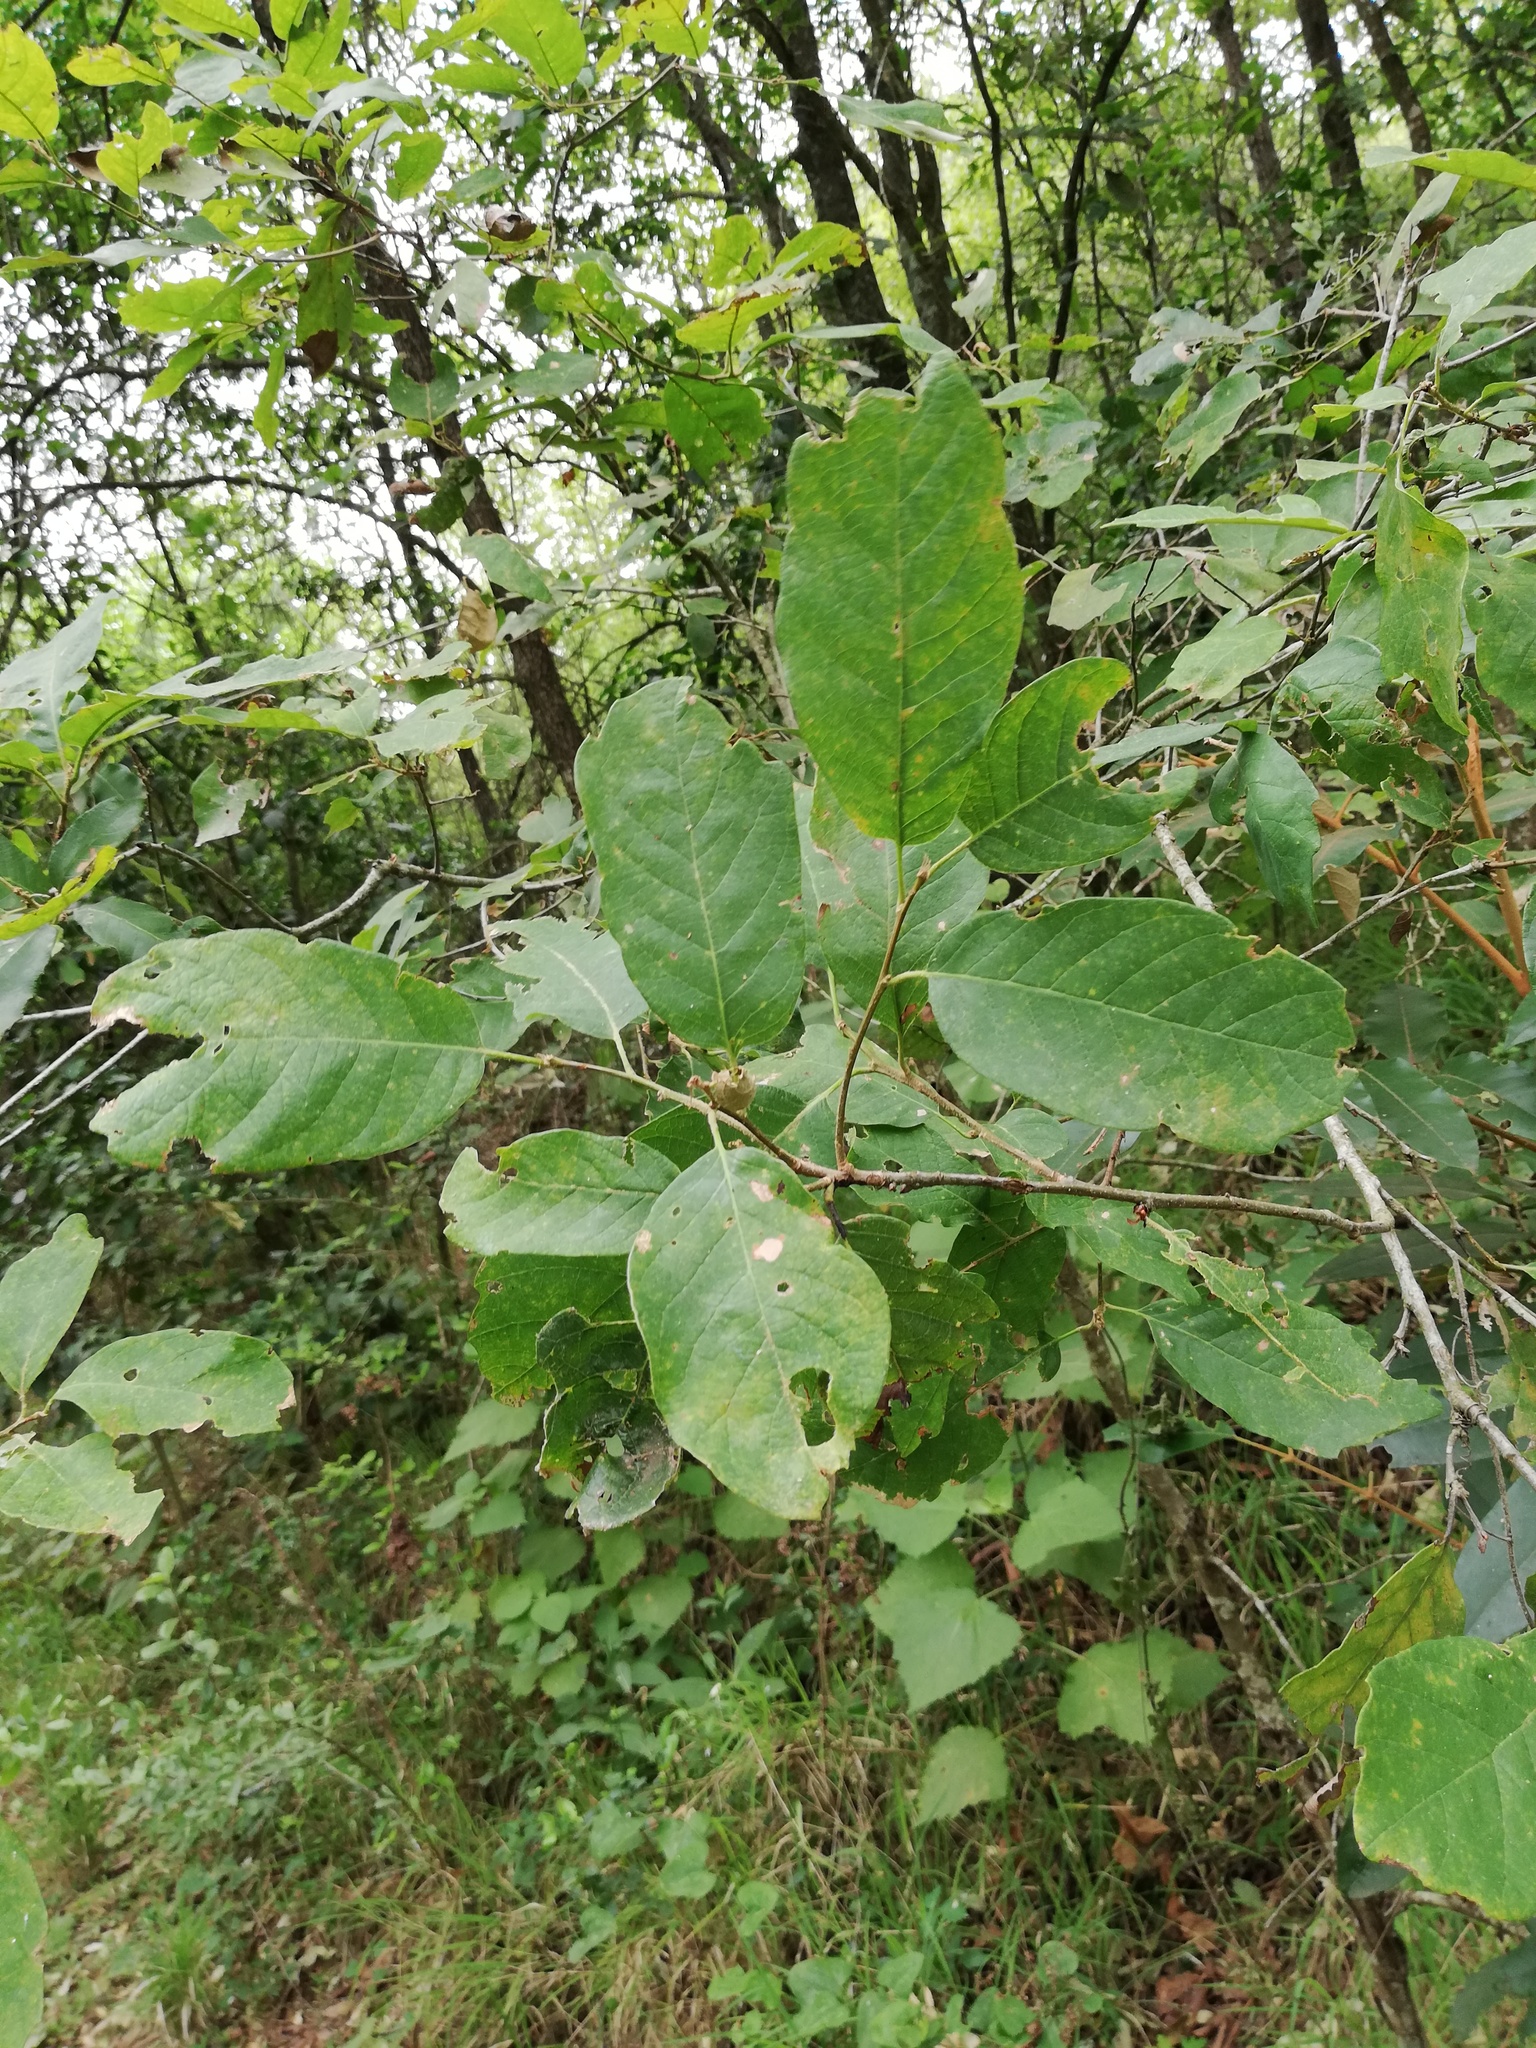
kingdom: Plantae
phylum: Tracheophyta
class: Magnoliopsida
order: Fagales
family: Fagaceae
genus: Quercus
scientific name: Quercus polymorpha
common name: Mexican white oak
